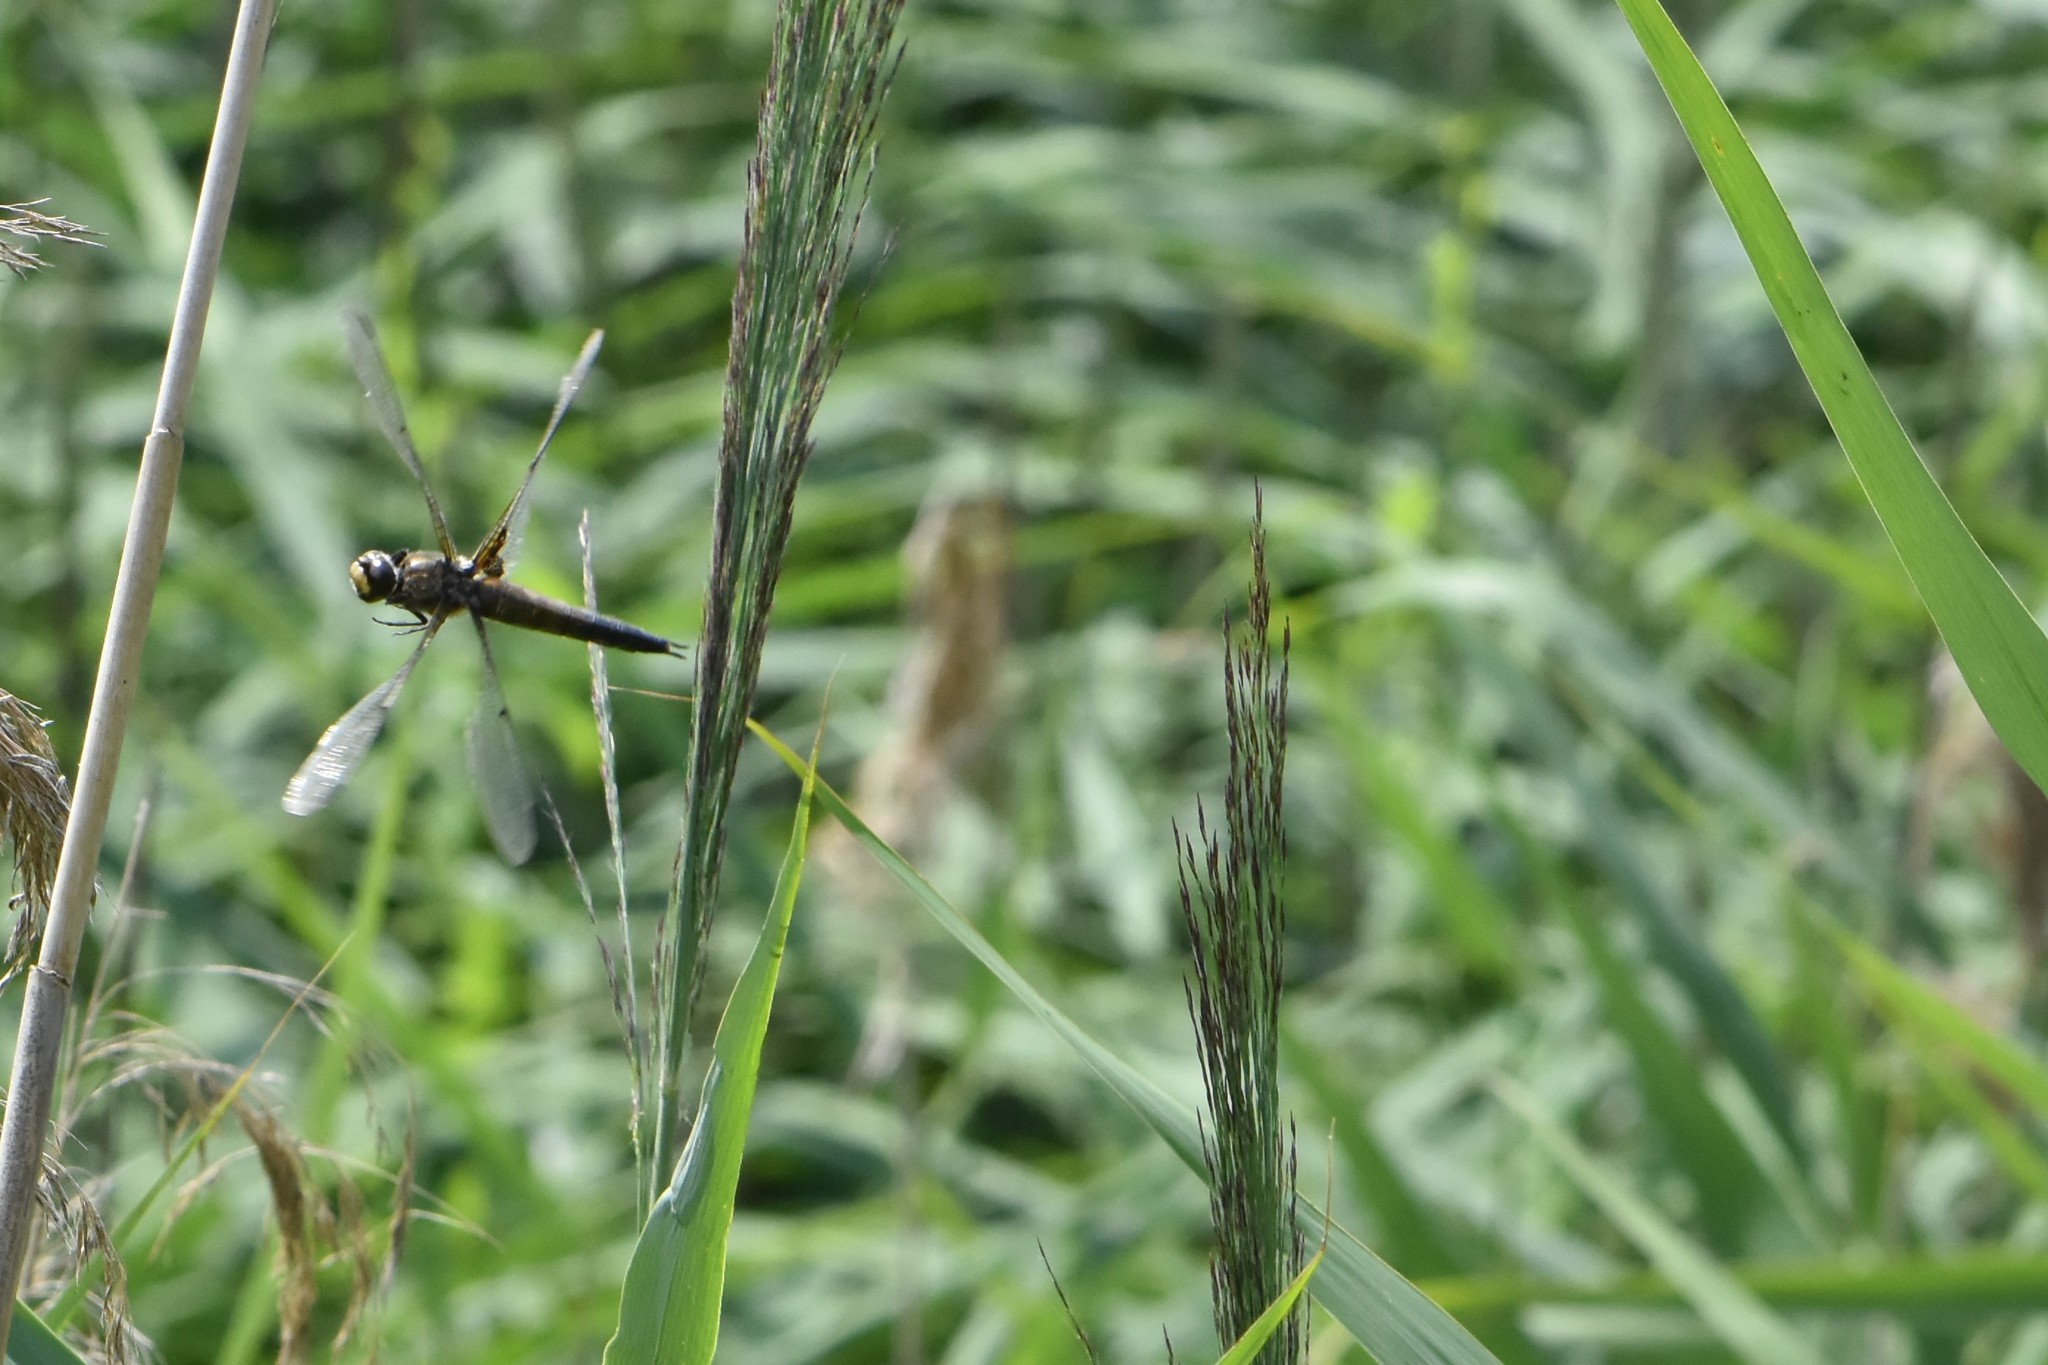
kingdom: Animalia
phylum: Arthropoda
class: Insecta
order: Odonata
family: Libellulidae
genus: Libellula
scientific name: Libellula quadrimaculata
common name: Four-spotted chaser
